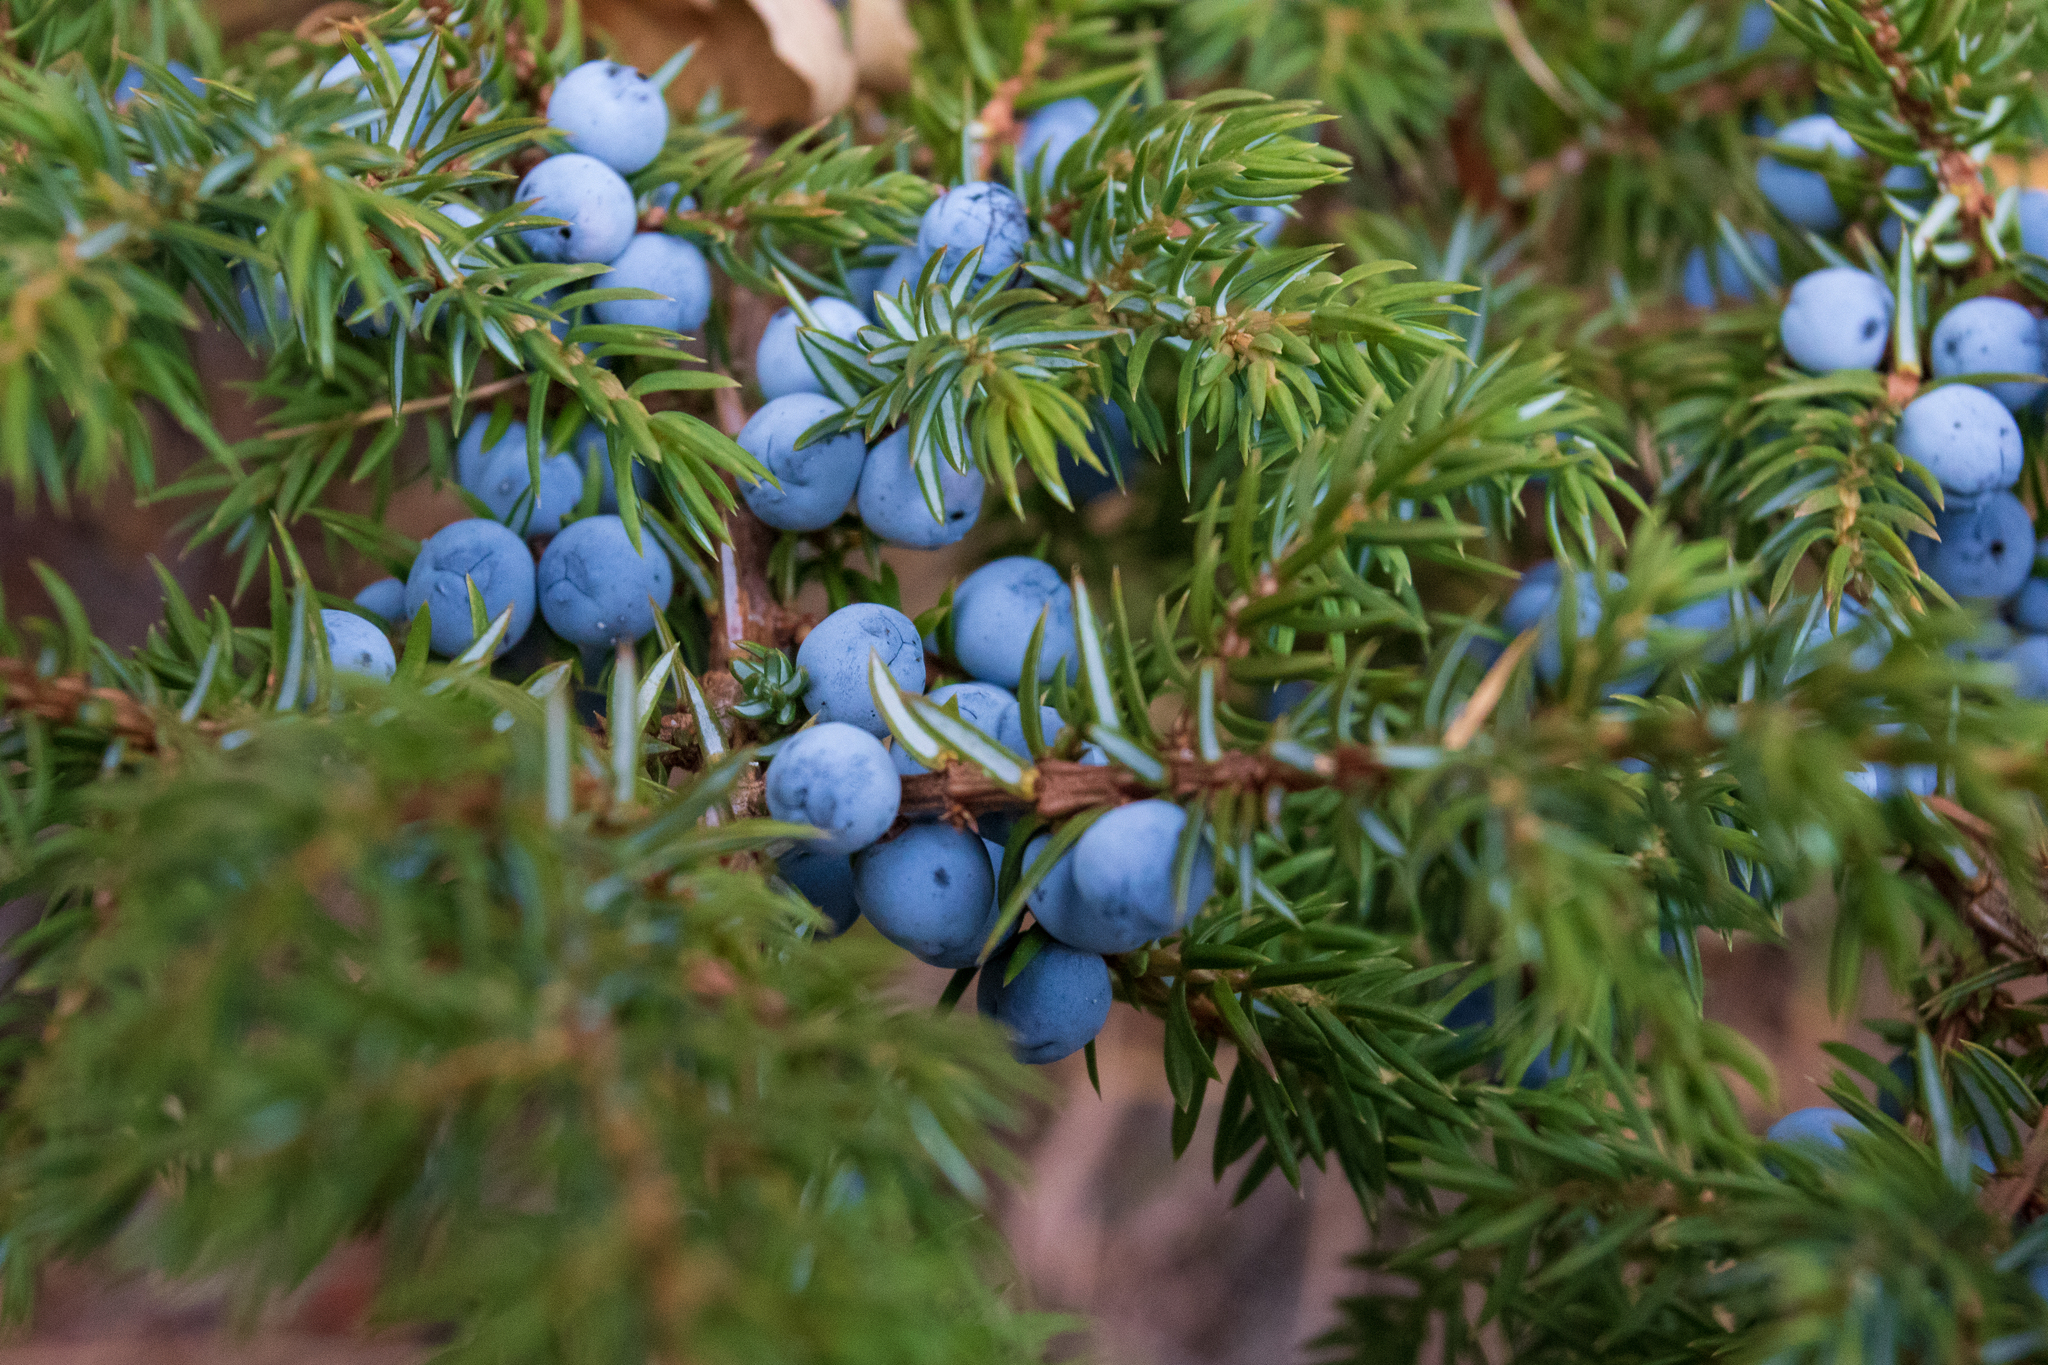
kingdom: Plantae
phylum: Tracheophyta
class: Pinopsida
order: Pinales
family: Cupressaceae
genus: Juniperus
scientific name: Juniperus communis
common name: Common juniper
